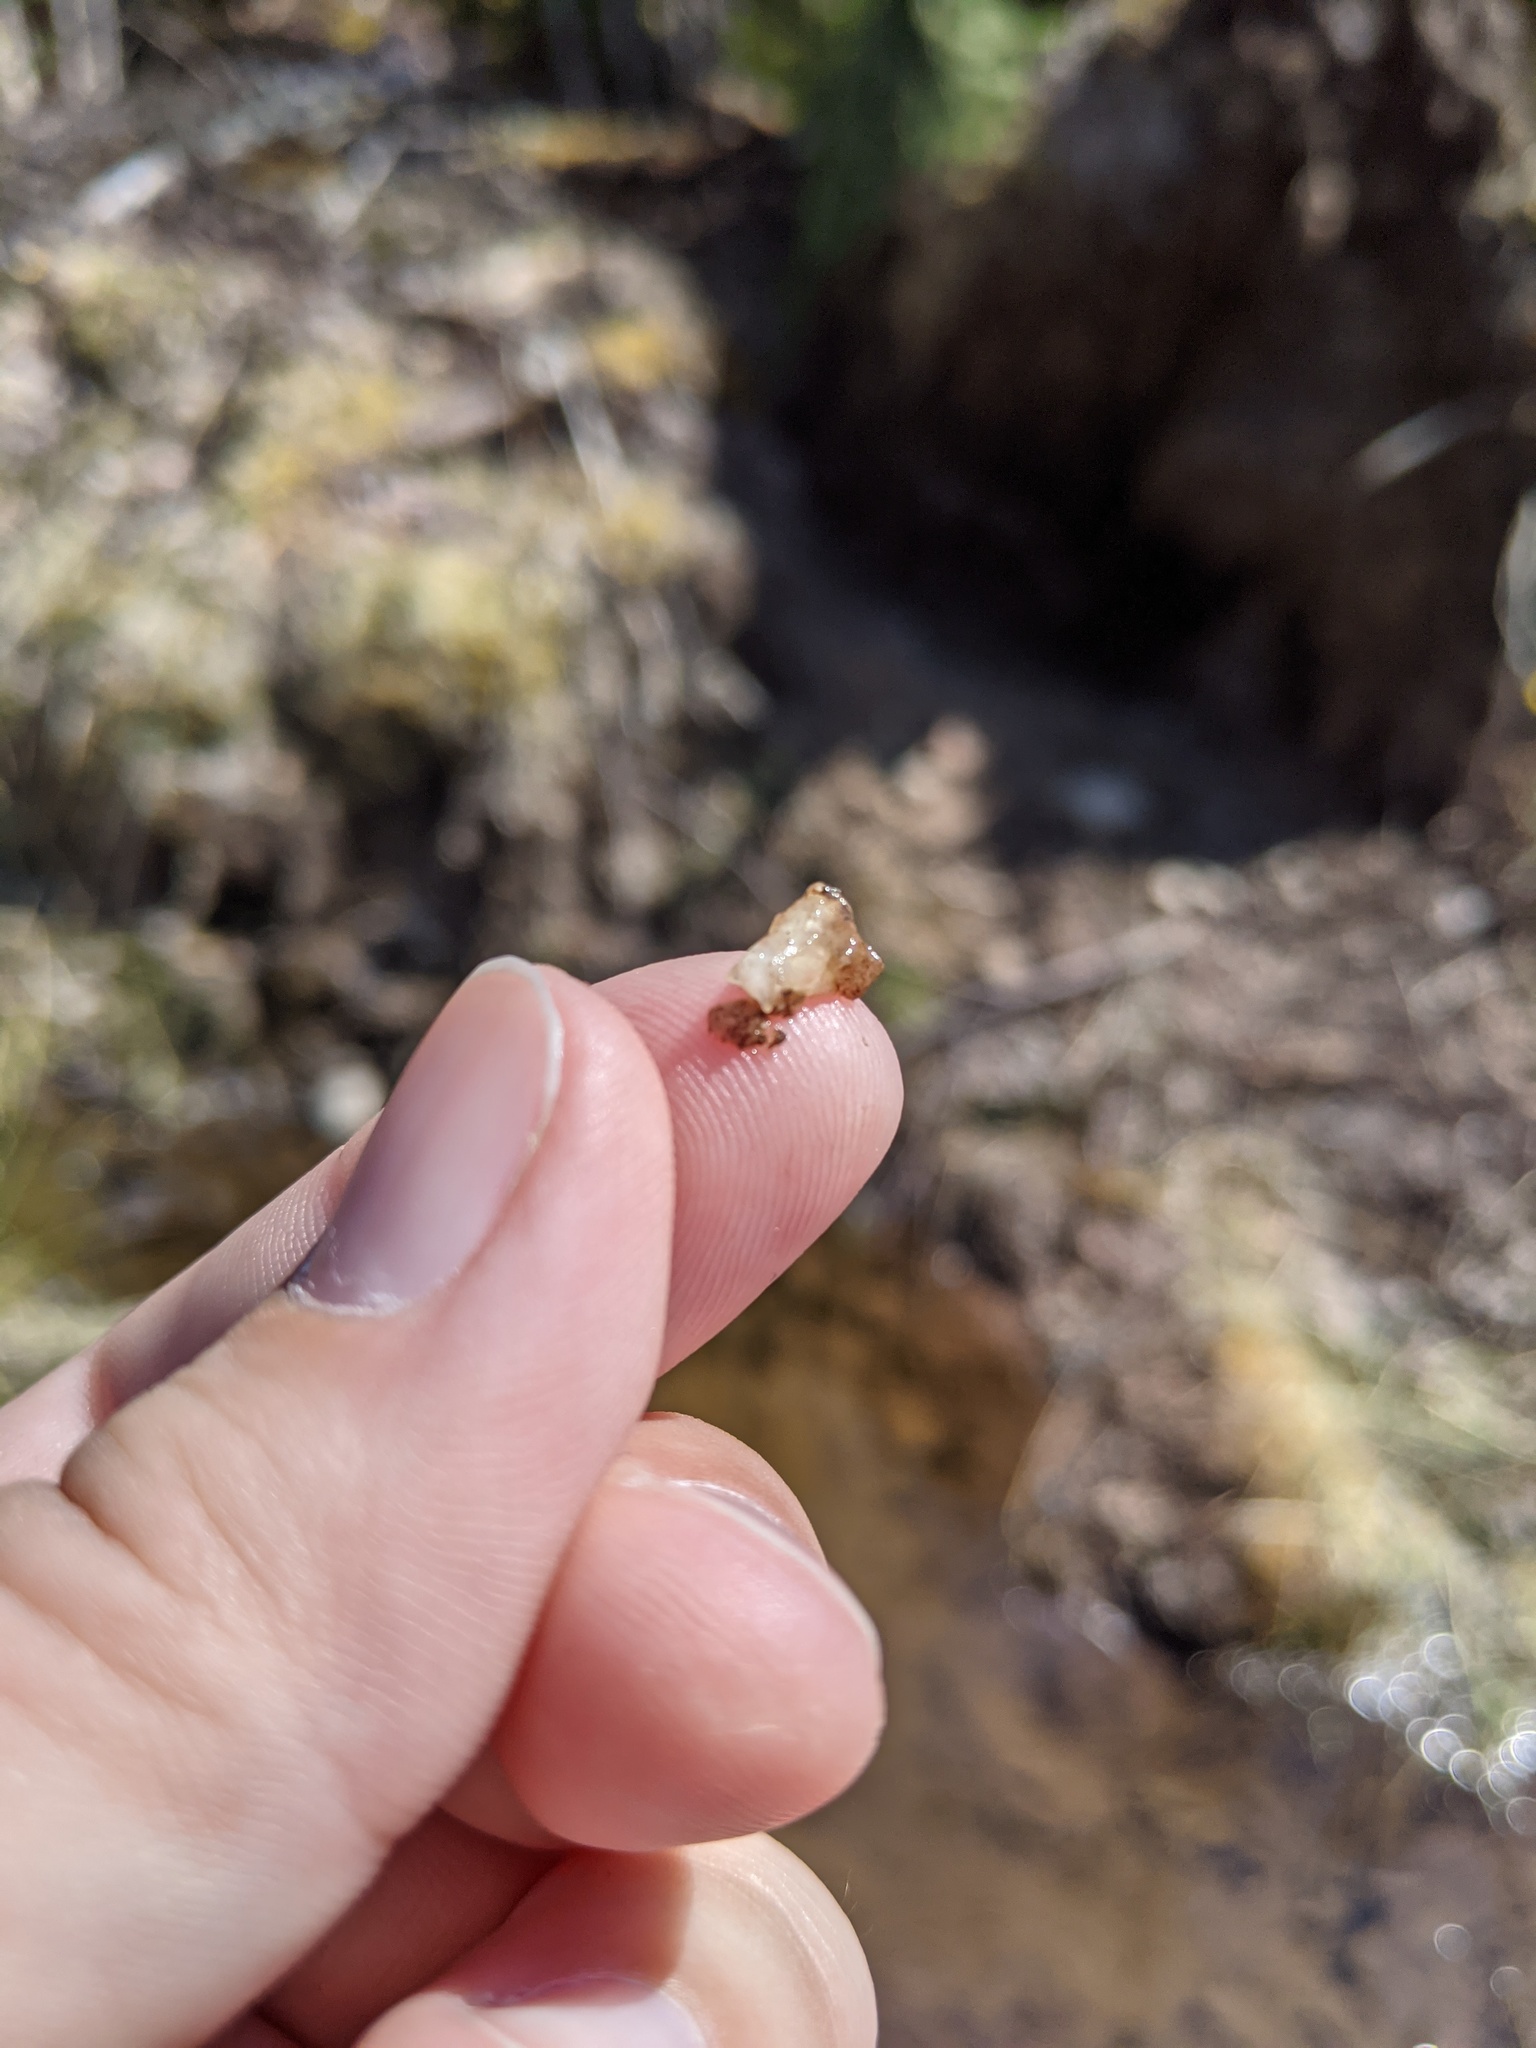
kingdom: Animalia
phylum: Chordata
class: Amphibia
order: Caudata
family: Ambystomatidae
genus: Ambystoma
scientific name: Ambystoma
